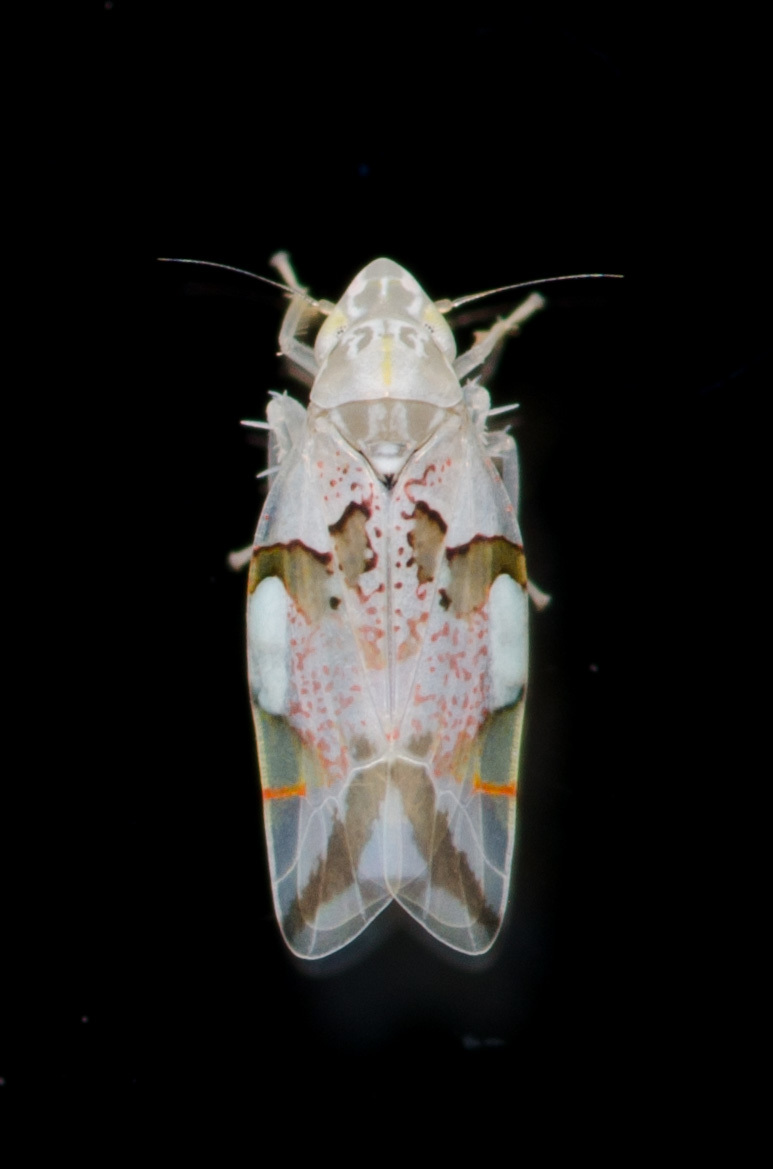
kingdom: Animalia
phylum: Arthropoda
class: Insecta
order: Hemiptera
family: Cicadellidae
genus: Hymetta
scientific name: Hymetta trifasciata
